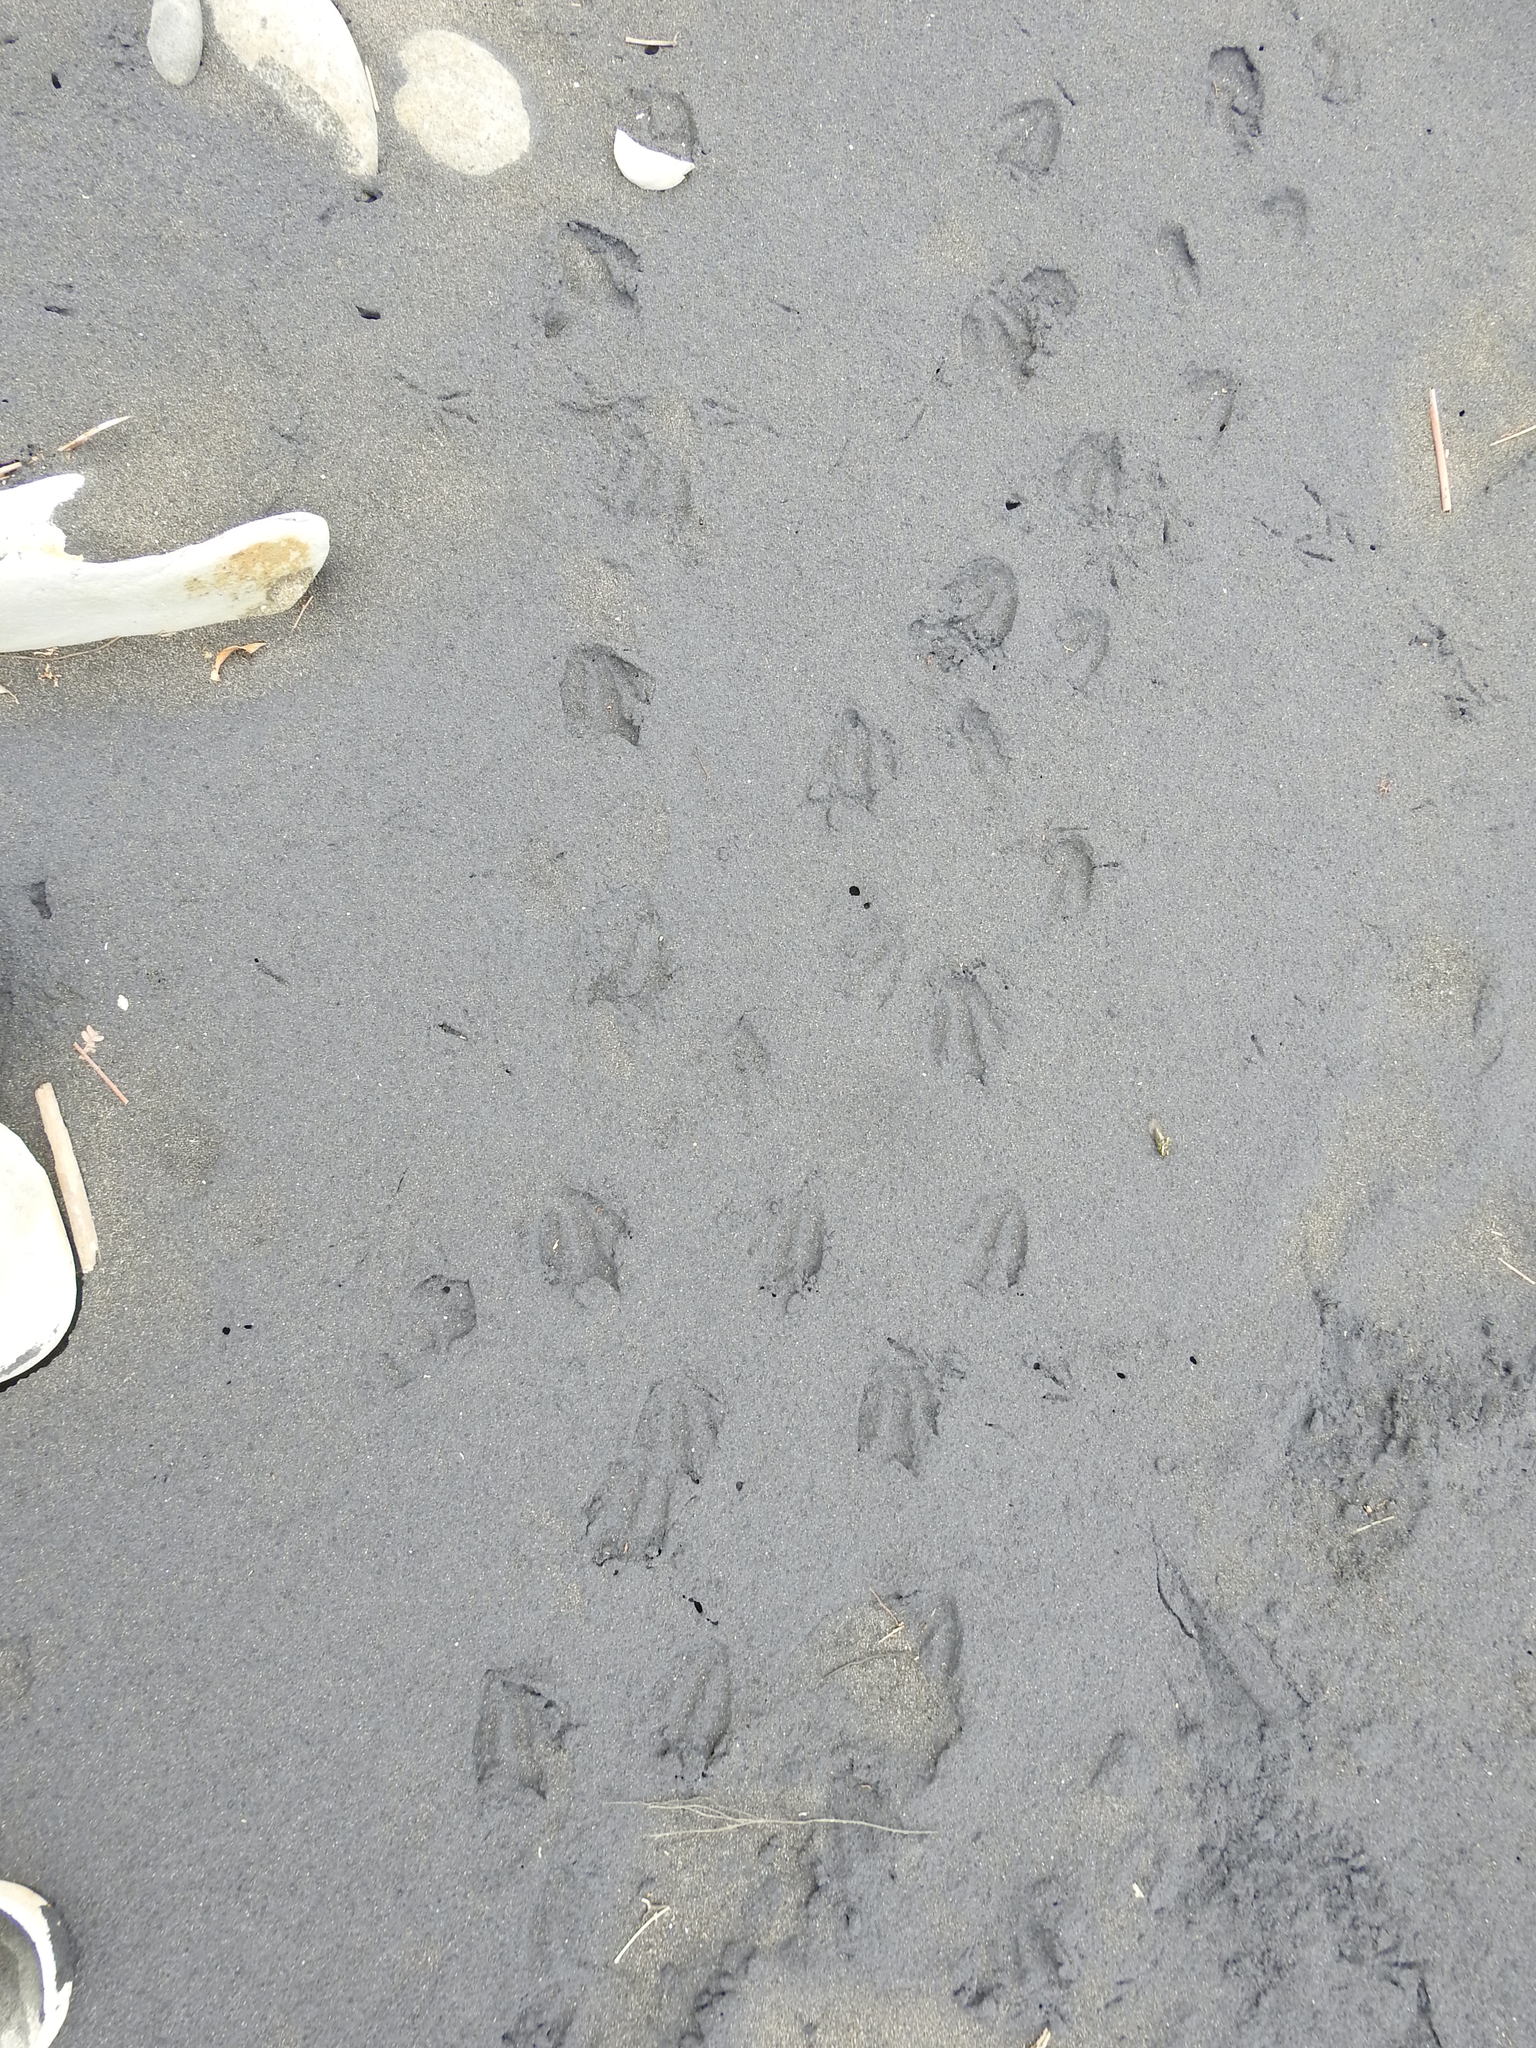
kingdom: Animalia
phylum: Chordata
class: Aves
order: Sphenisciformes
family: Spheniscidae
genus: Eudyptula
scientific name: Eudyptula minor
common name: Little penguin
